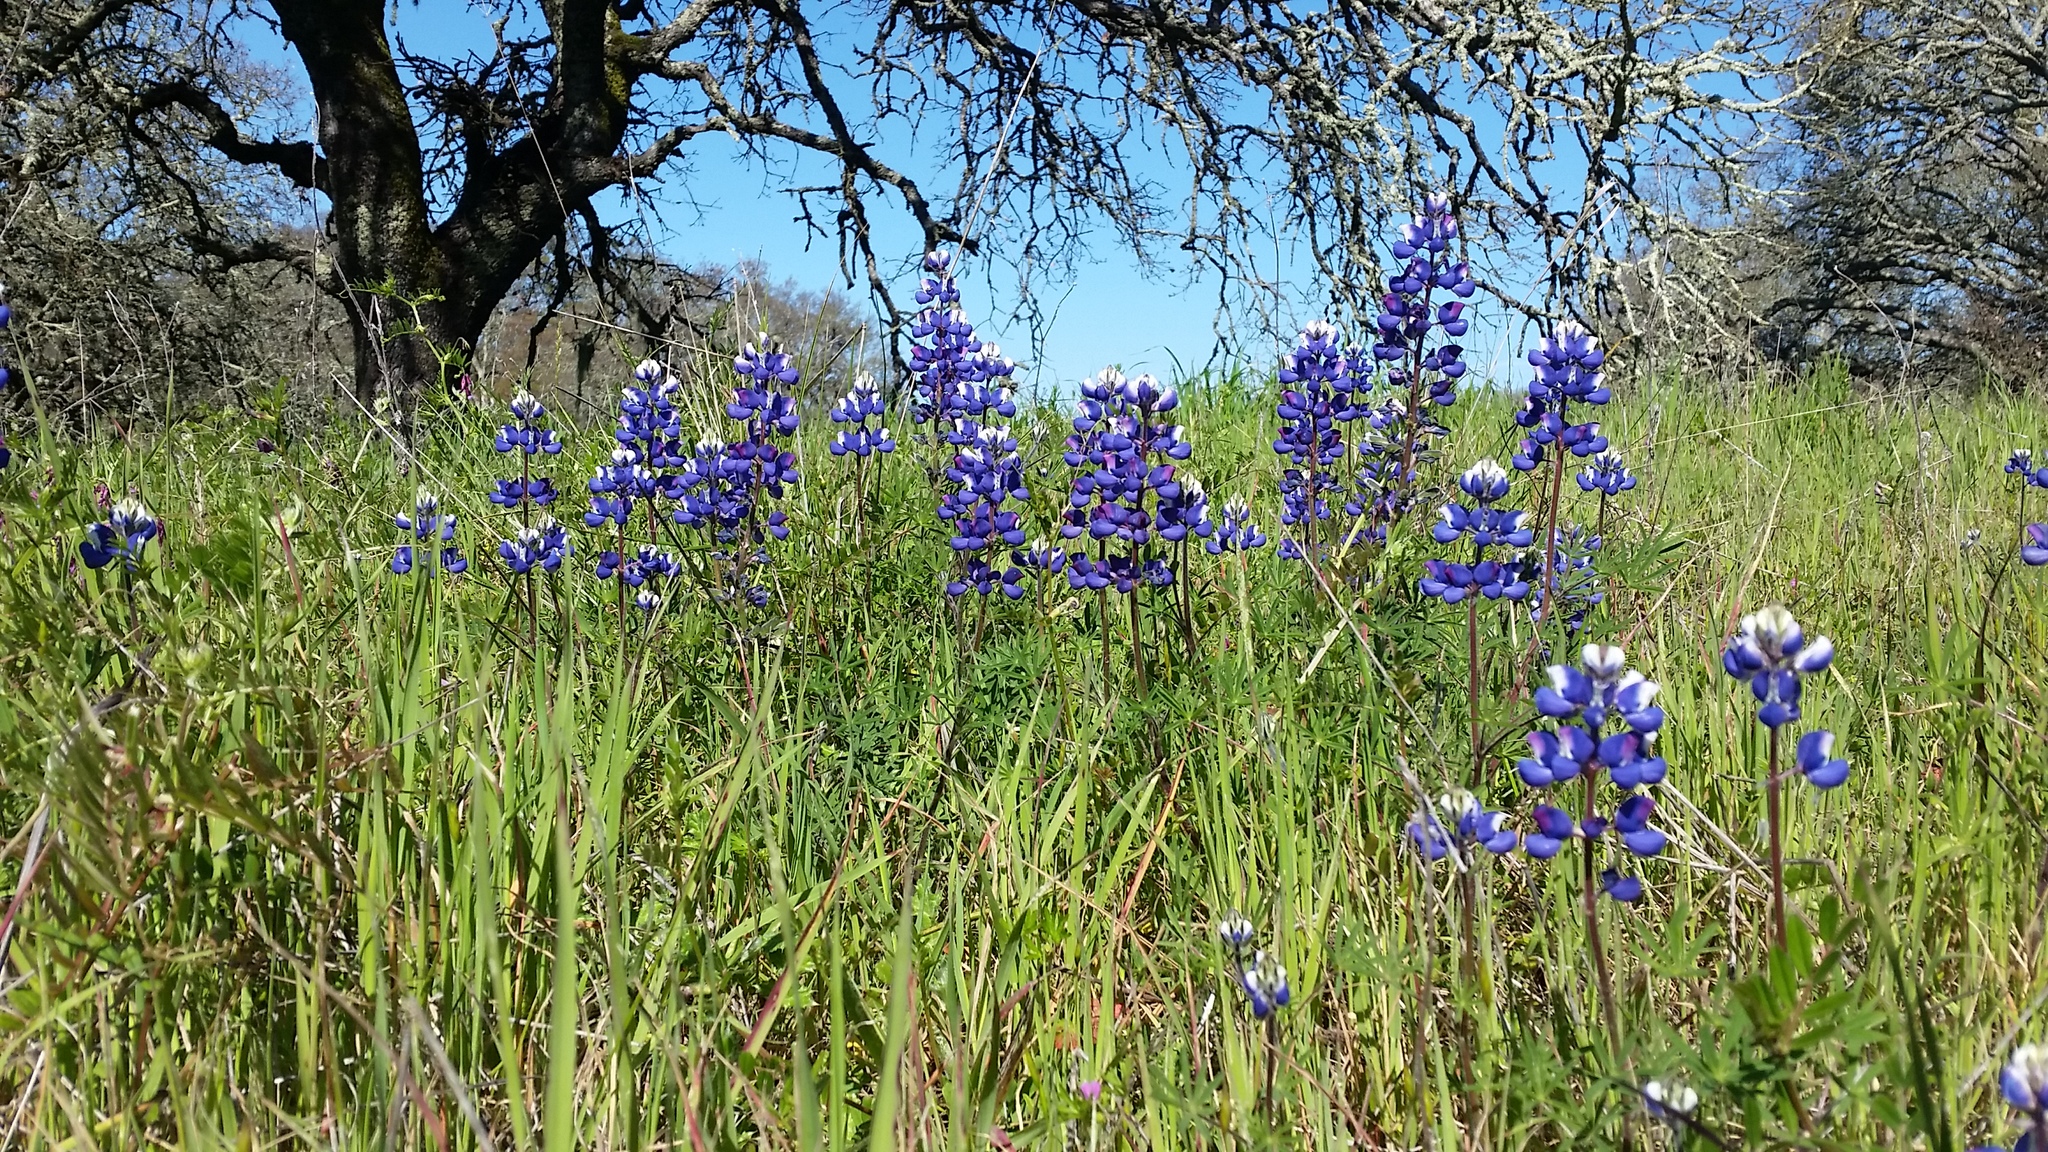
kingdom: Plantae
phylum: Tracheophyta
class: Magnoliopsida
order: Fabales
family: Fabaceae
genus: Lupinus
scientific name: Lupinus nanus
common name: Orean blue lupin
